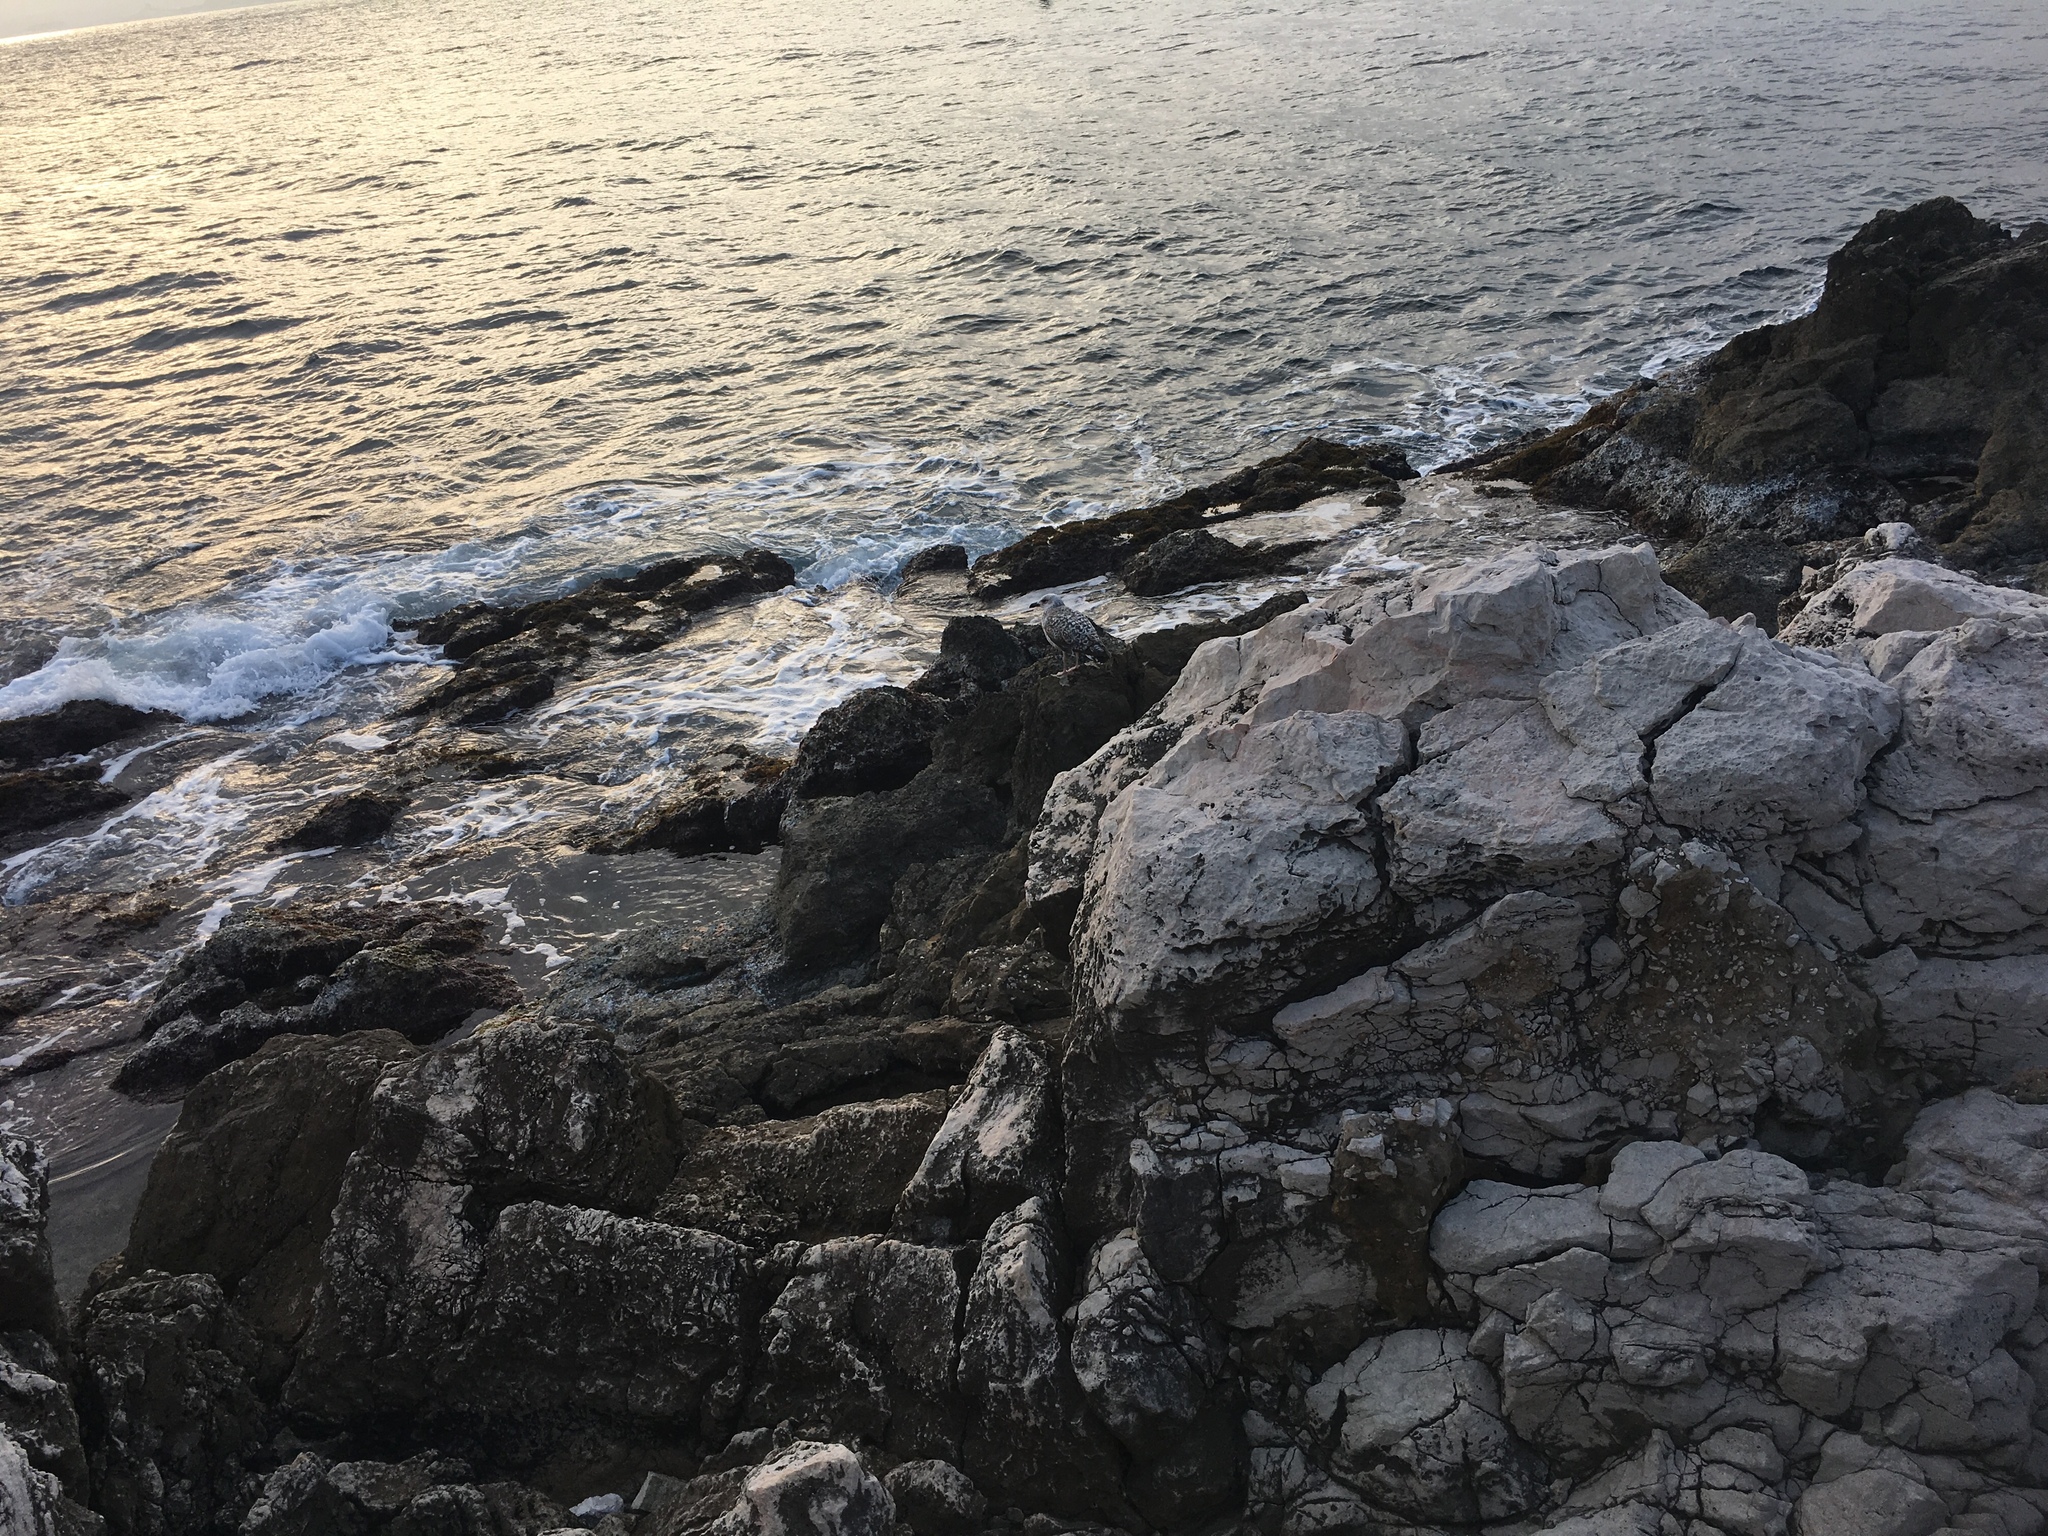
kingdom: Animalia
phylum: Chordata
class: Aves
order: Charadriiformes
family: Laridae
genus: Larus
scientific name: Larus michahellis
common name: Yellow-legged gull
